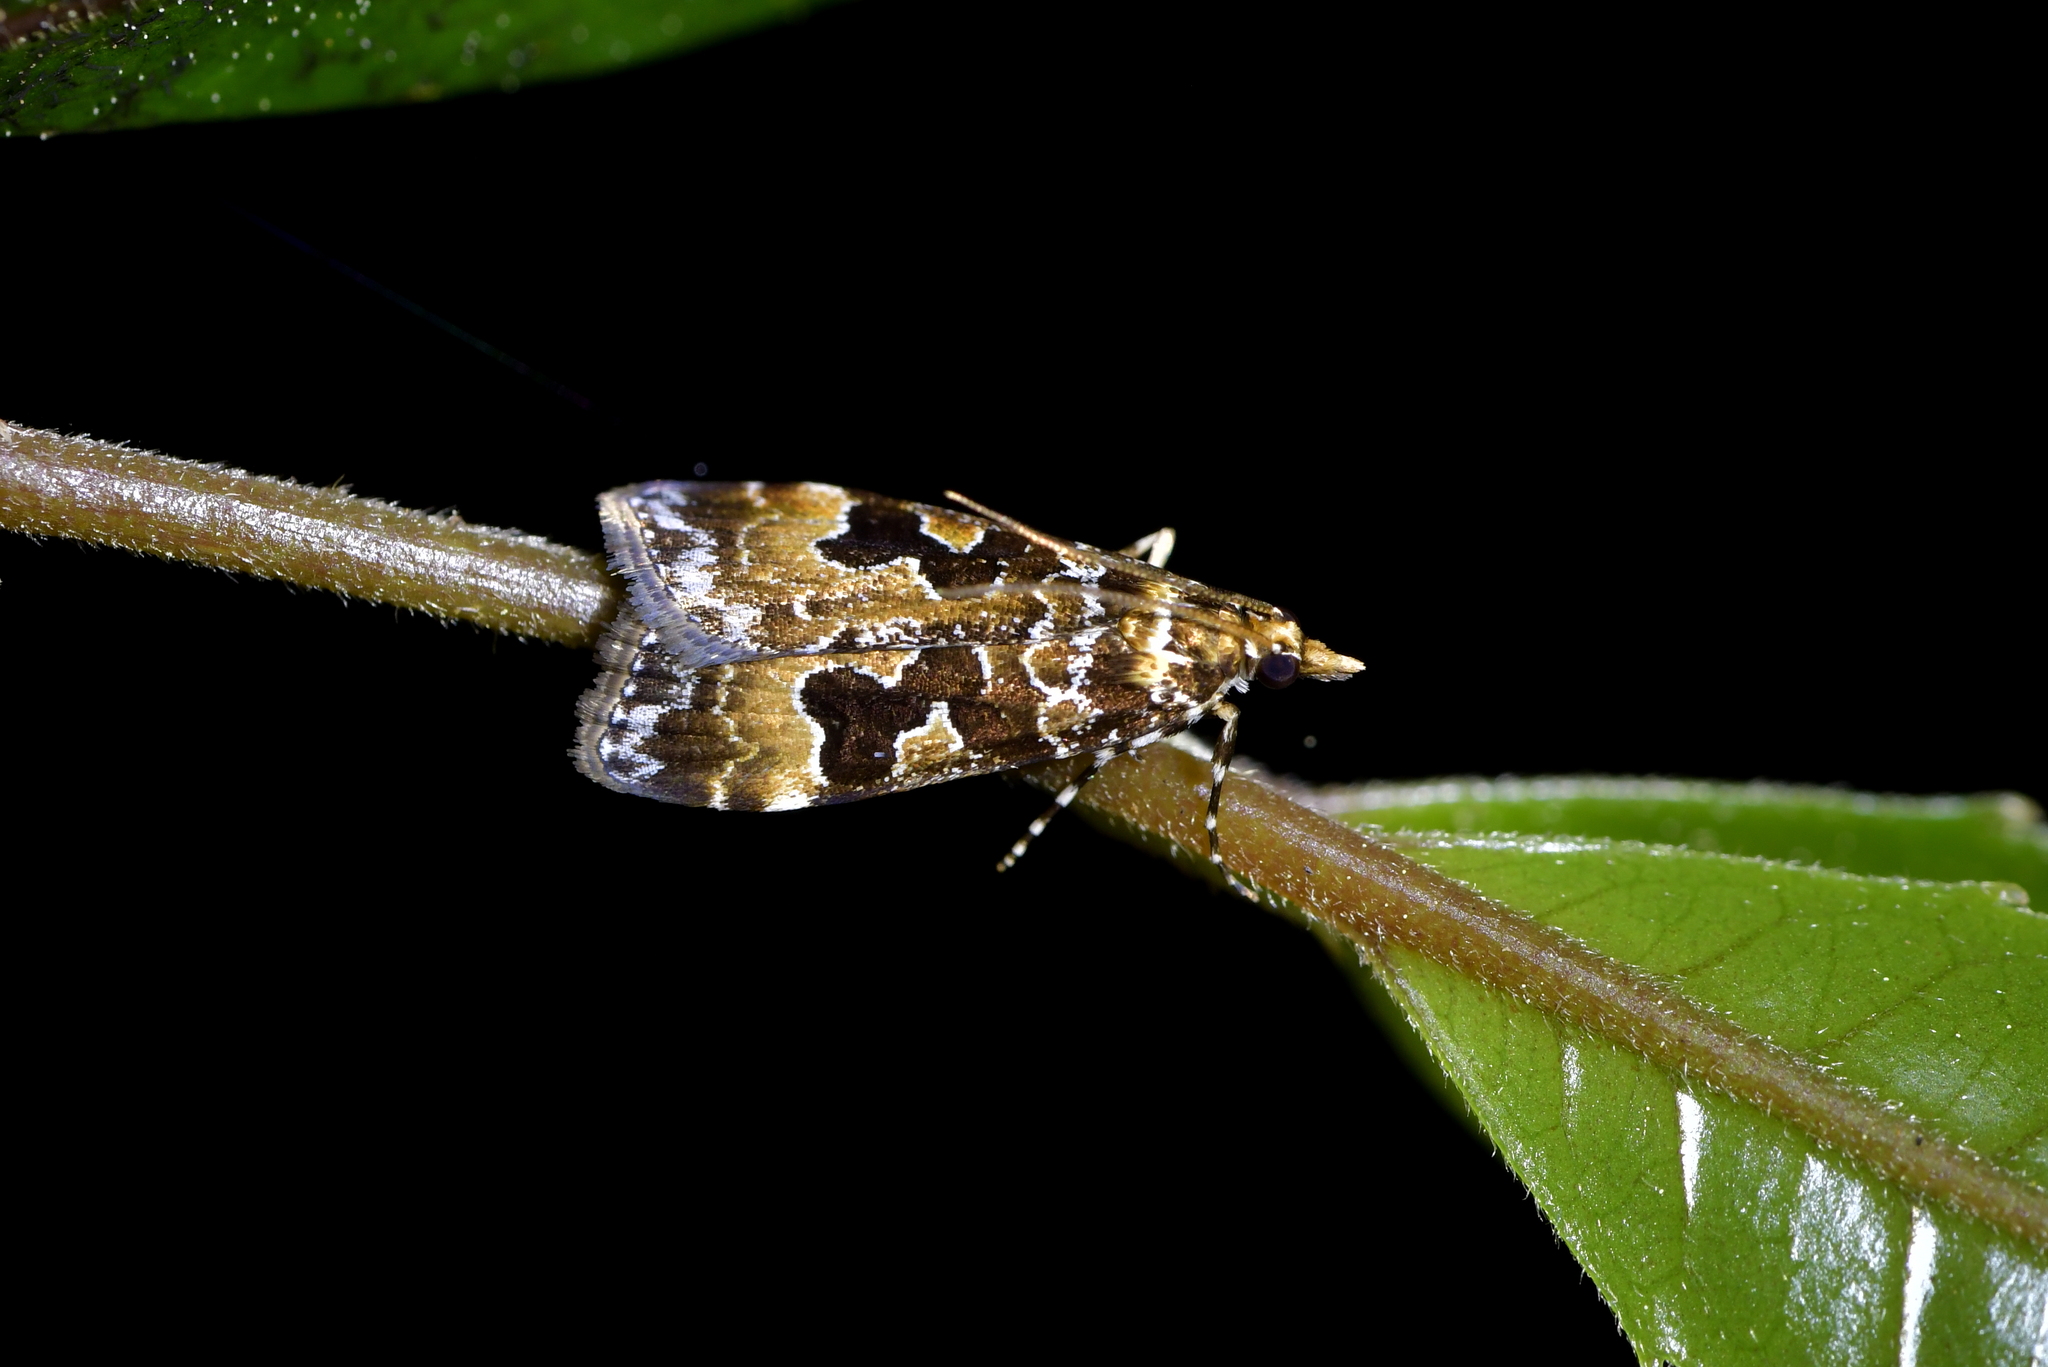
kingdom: Animalia
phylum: Arthropoda
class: Insecta
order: Lepidoptera
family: Crambidae
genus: Scoparia
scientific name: Scoparia ustimacula
